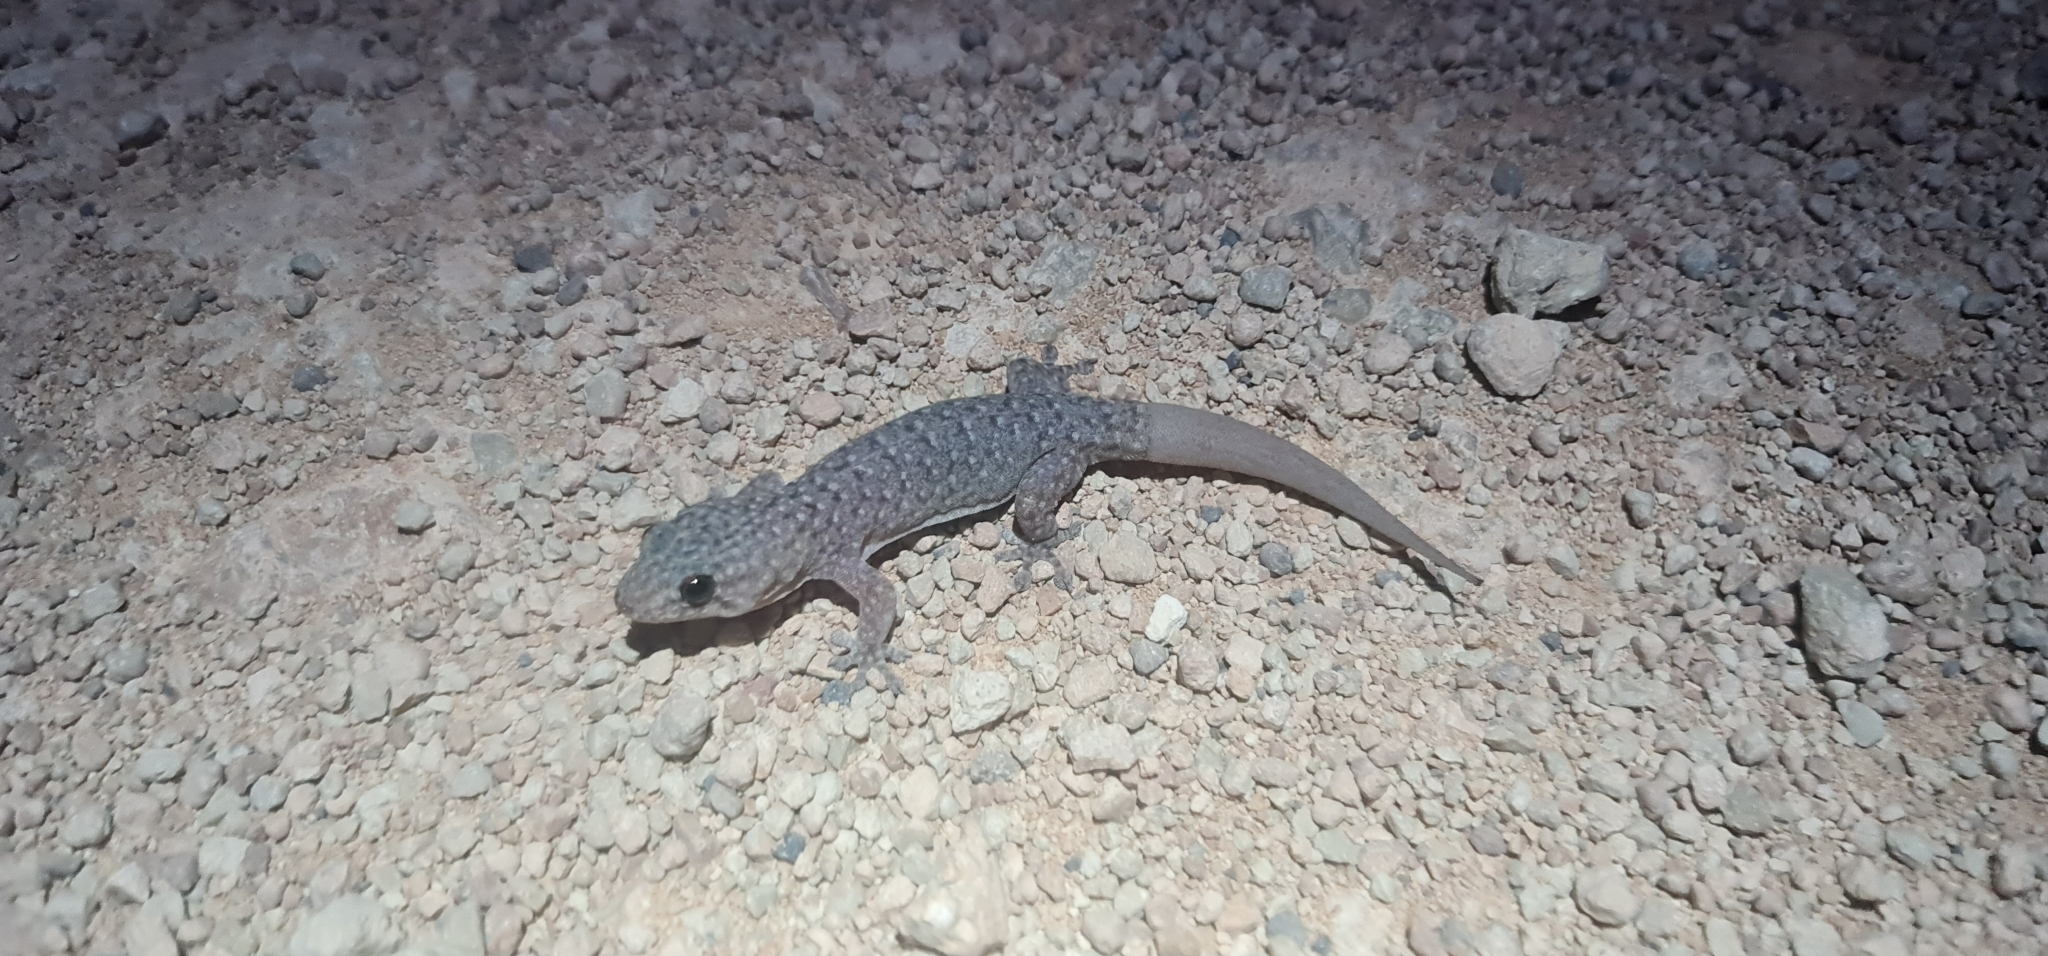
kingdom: Animalia
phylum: Chordata
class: Squamata
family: Gekkonidae
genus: Gehyra
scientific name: Gehyra lazelli
